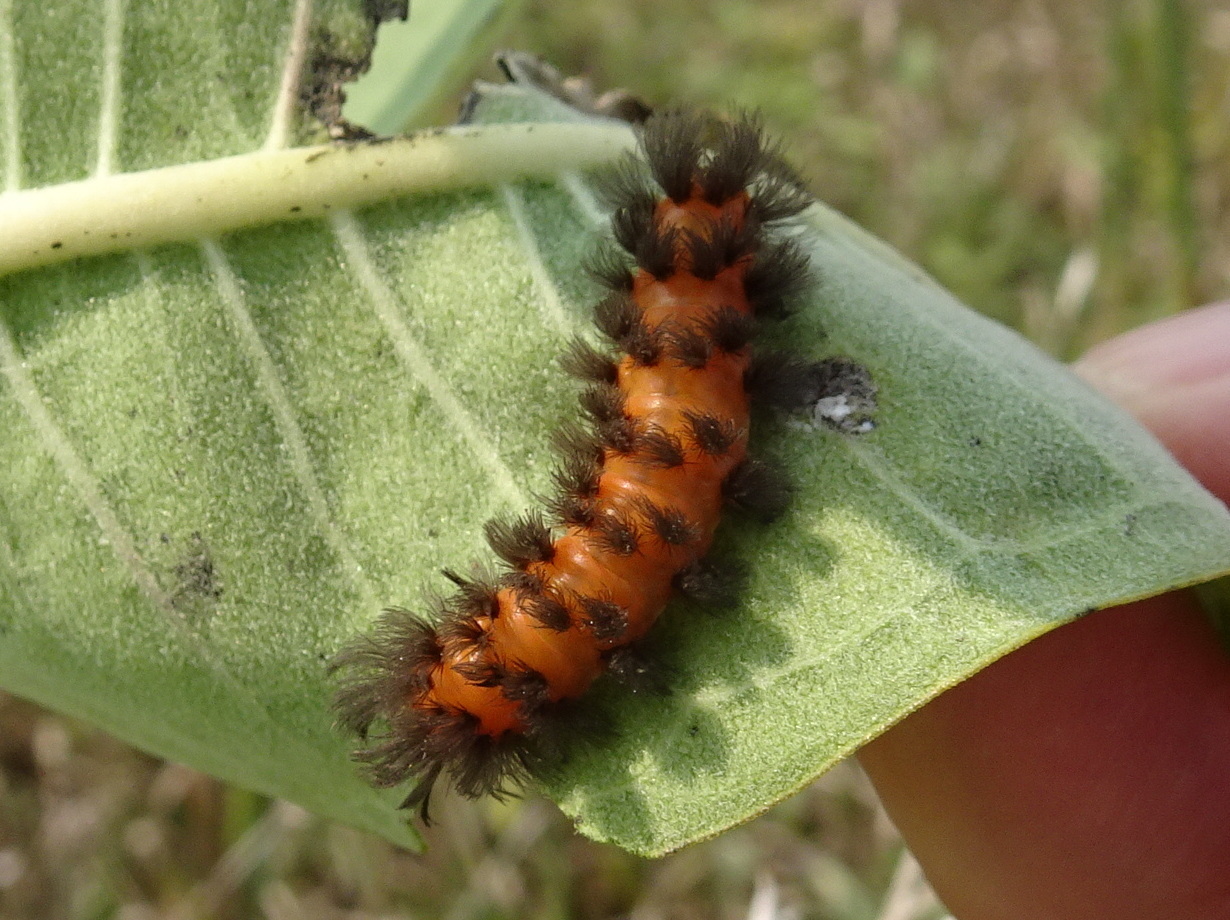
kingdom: Animalia
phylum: Arthropoda
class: Insecta
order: Lepidoptera
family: Erebidae
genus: Cycnia
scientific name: Cycnia collaris
